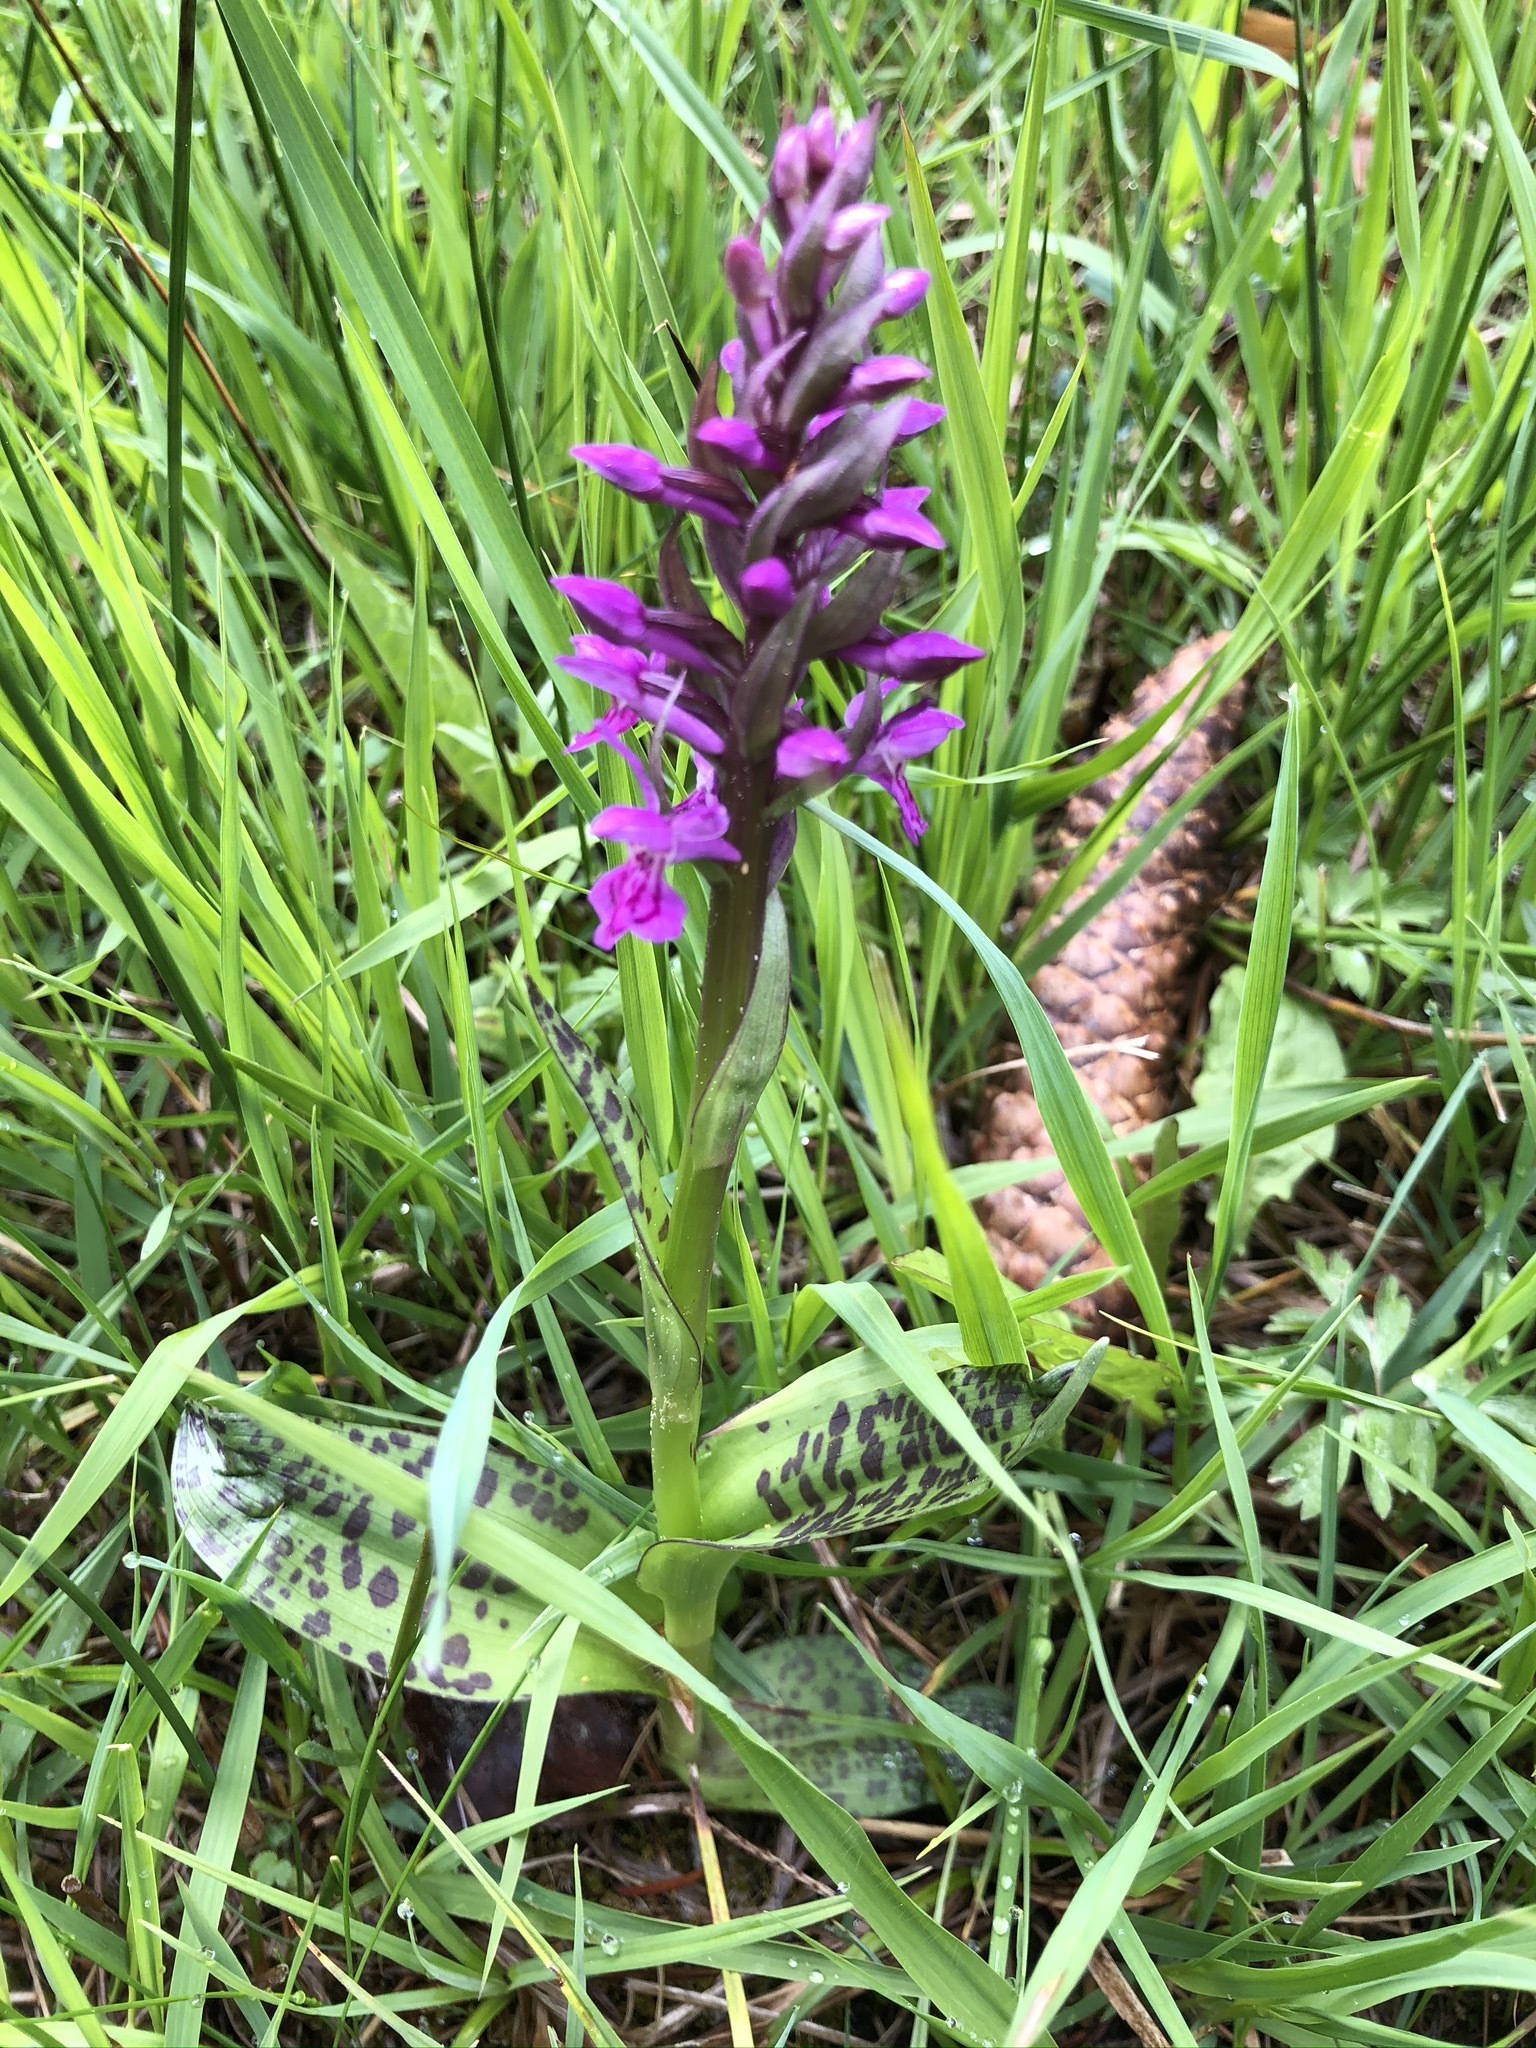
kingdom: Plantae
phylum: Tracheophyta
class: Liliopsida
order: Asparagales
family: Orchidaceae
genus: Dactylorhiza
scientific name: Dactylorhiza majalis
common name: Marsh orchid
